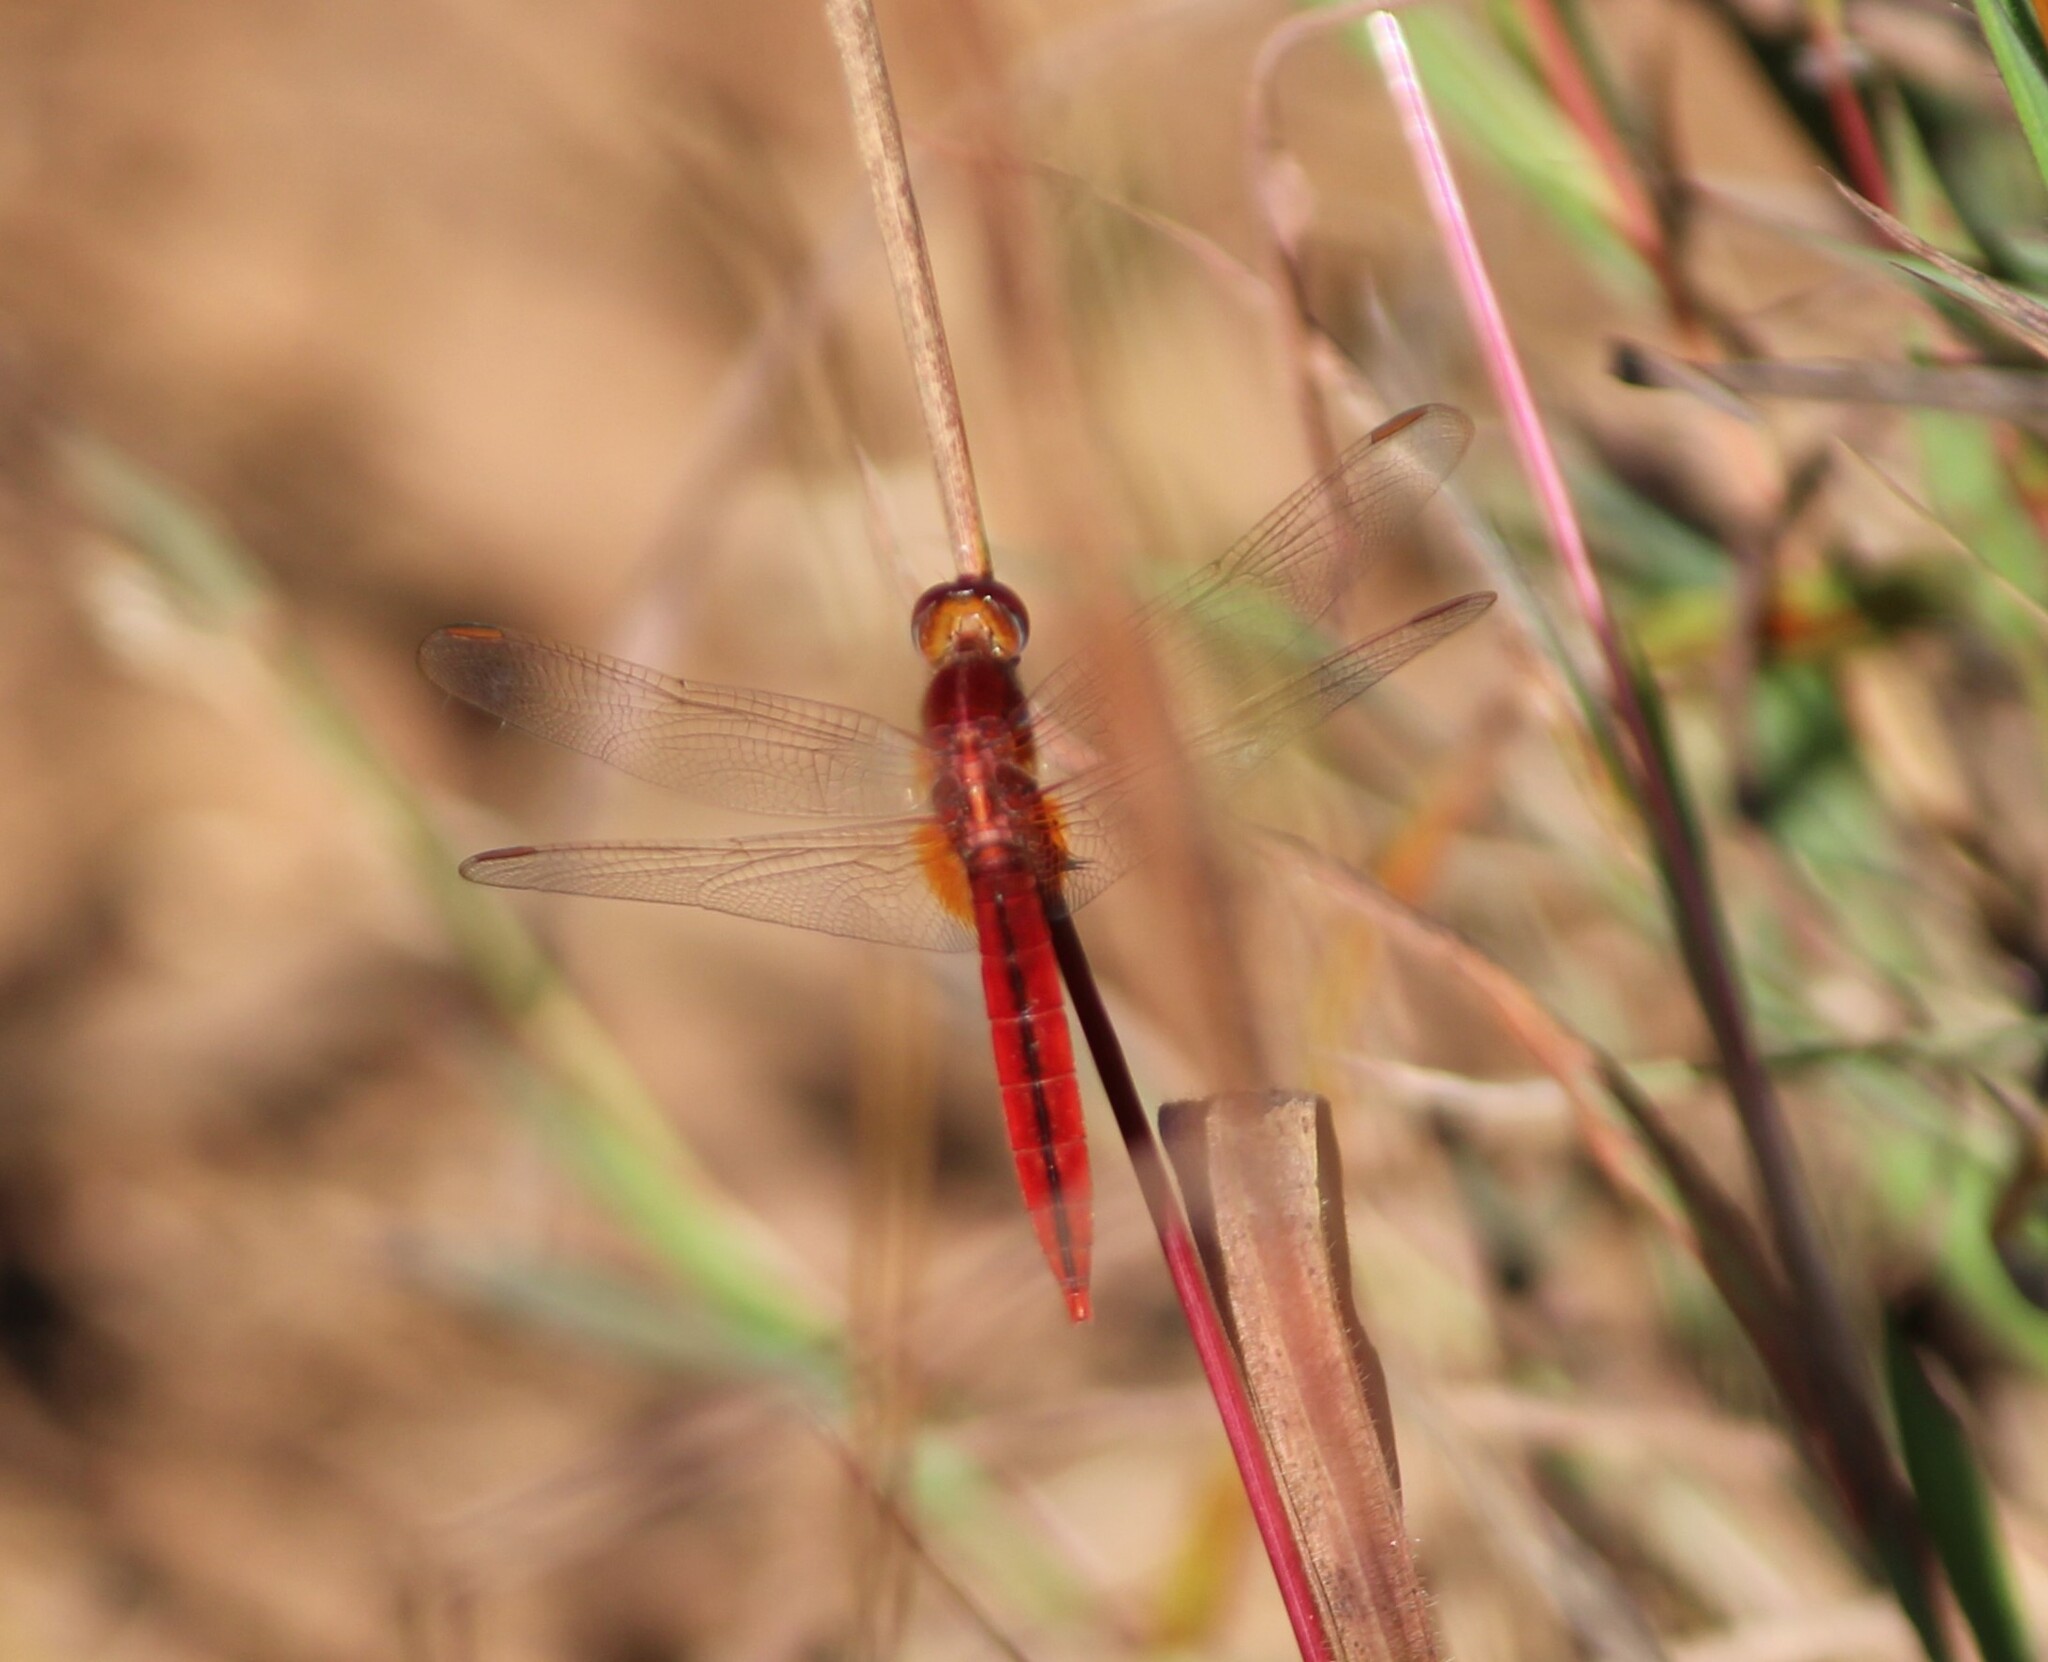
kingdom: Animalia
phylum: Arthropoda
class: Insecta
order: Odonata
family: Libellulidae
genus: Crocothemis
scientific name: Crocothemis servilia
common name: Scarlet skimmer
